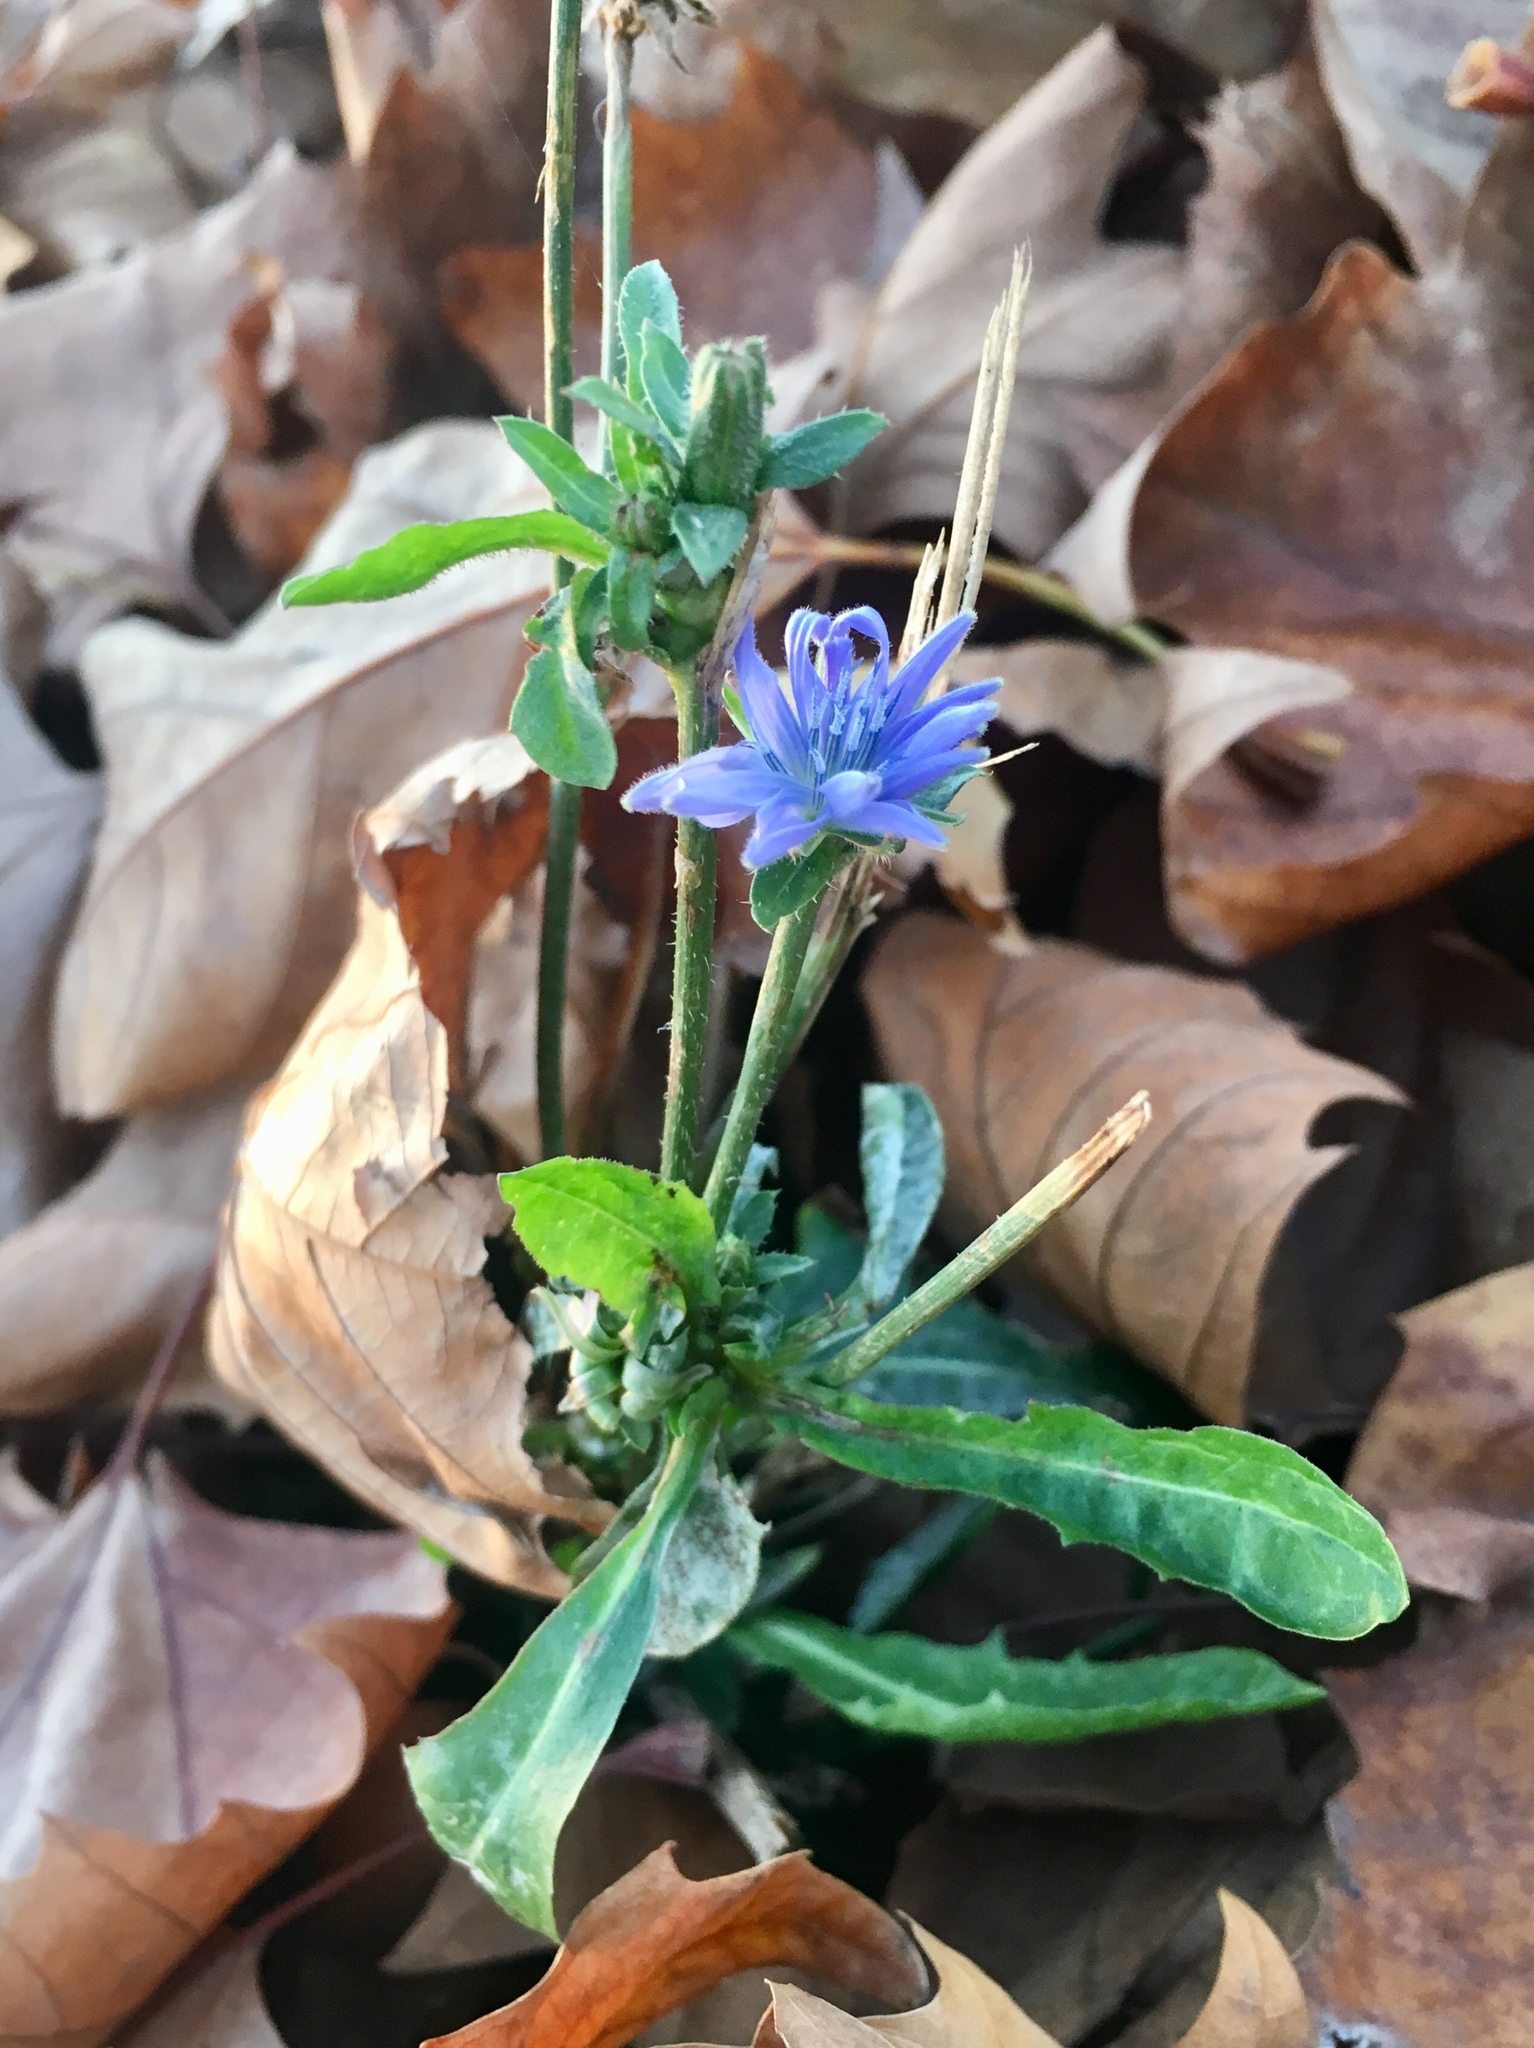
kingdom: Plantae
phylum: Tracheophyta
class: Magnoliopsida
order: Asterales
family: Asteraceae
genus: Cichorium
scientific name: Cichorium intybus
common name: Chicory
